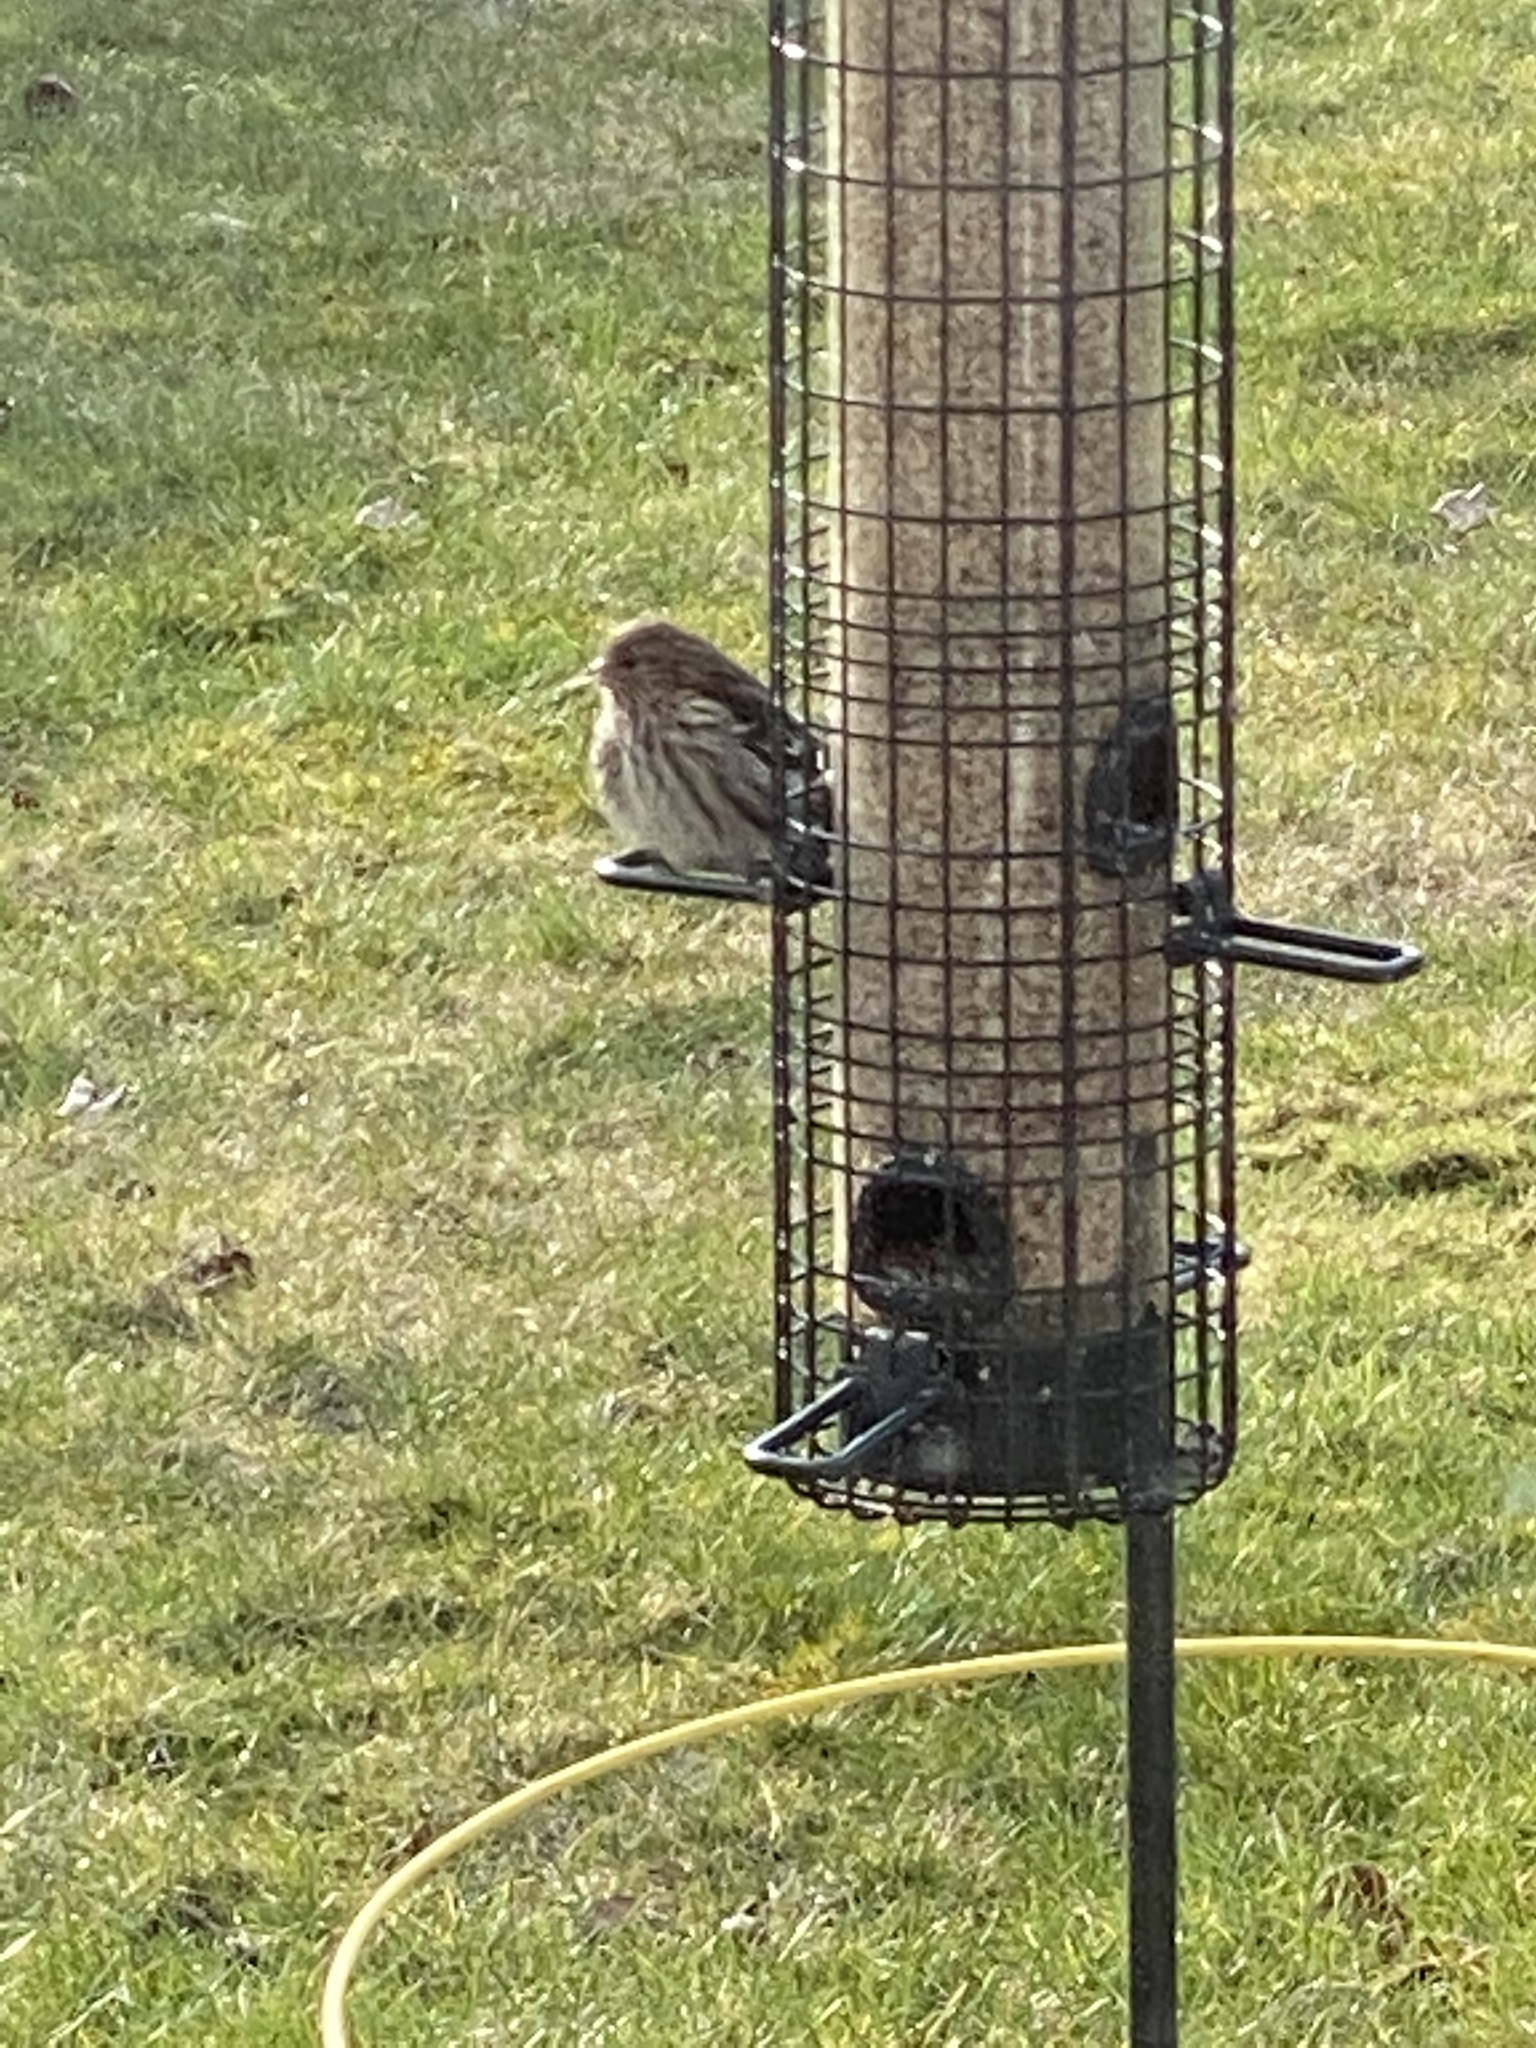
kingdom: Animalia
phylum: Chordata
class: Aves
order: Passeriformes
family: Fringillidae
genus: Haemorhous
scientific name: Haemorhous mexicanus
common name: House finch
